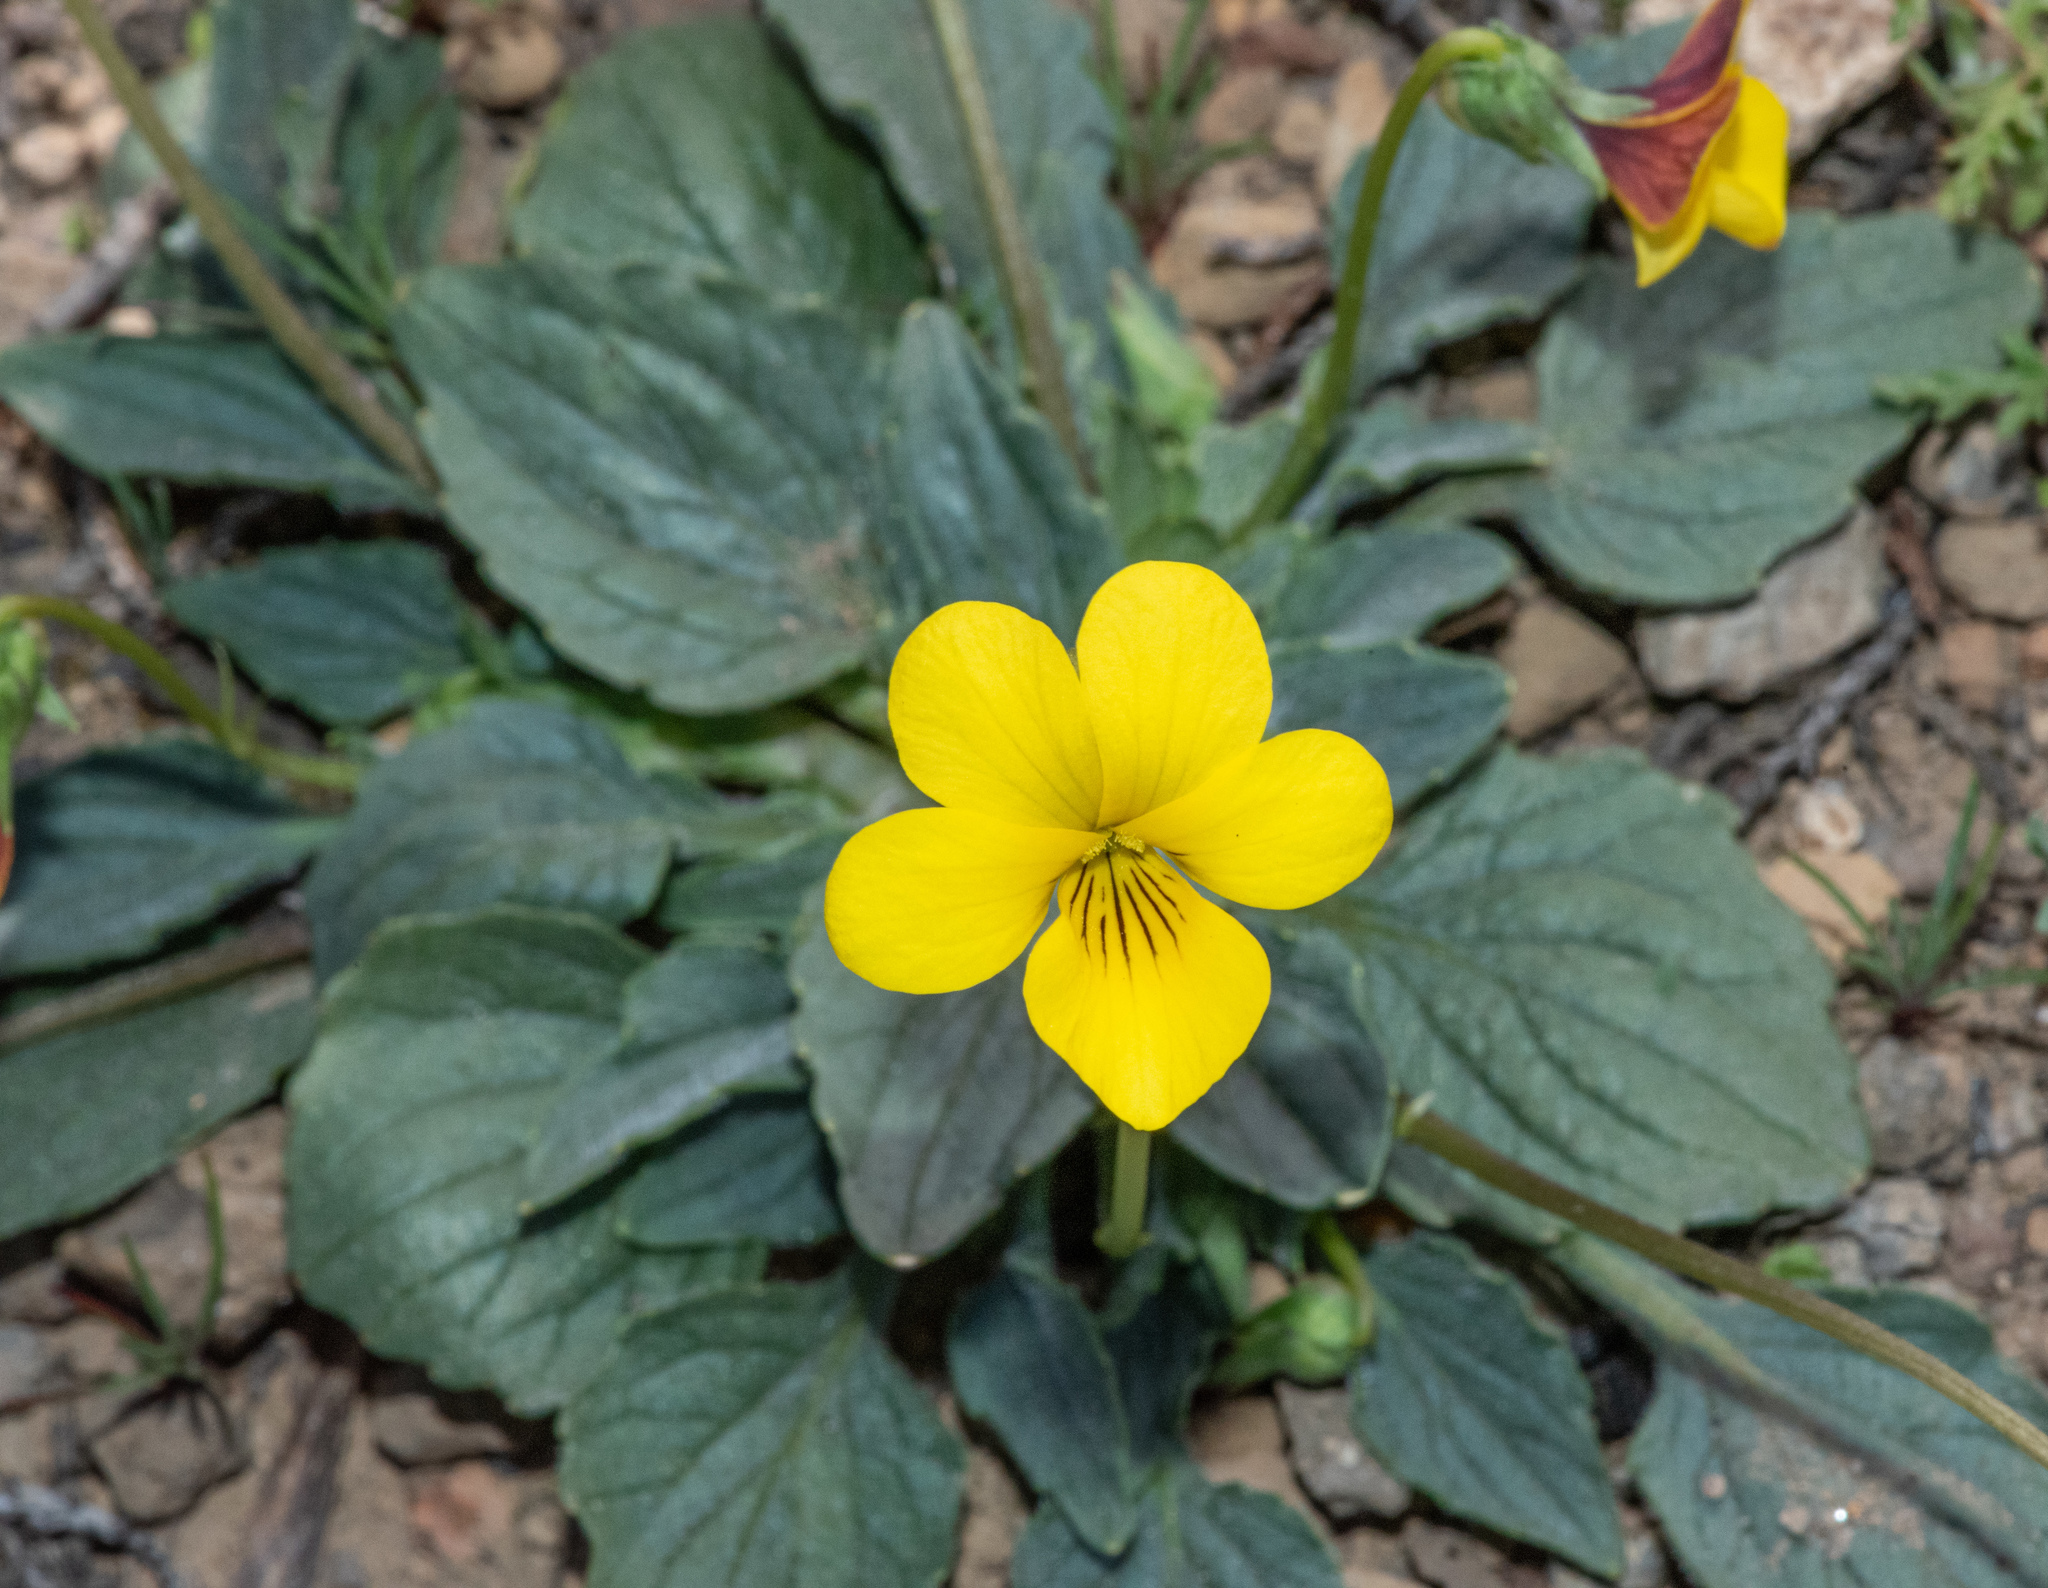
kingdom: Plantae
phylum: Tracheophyta
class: Magnoliopsida
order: Malpighiales
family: Violaceae
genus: Viola
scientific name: Viola purpurea
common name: Pine violet
